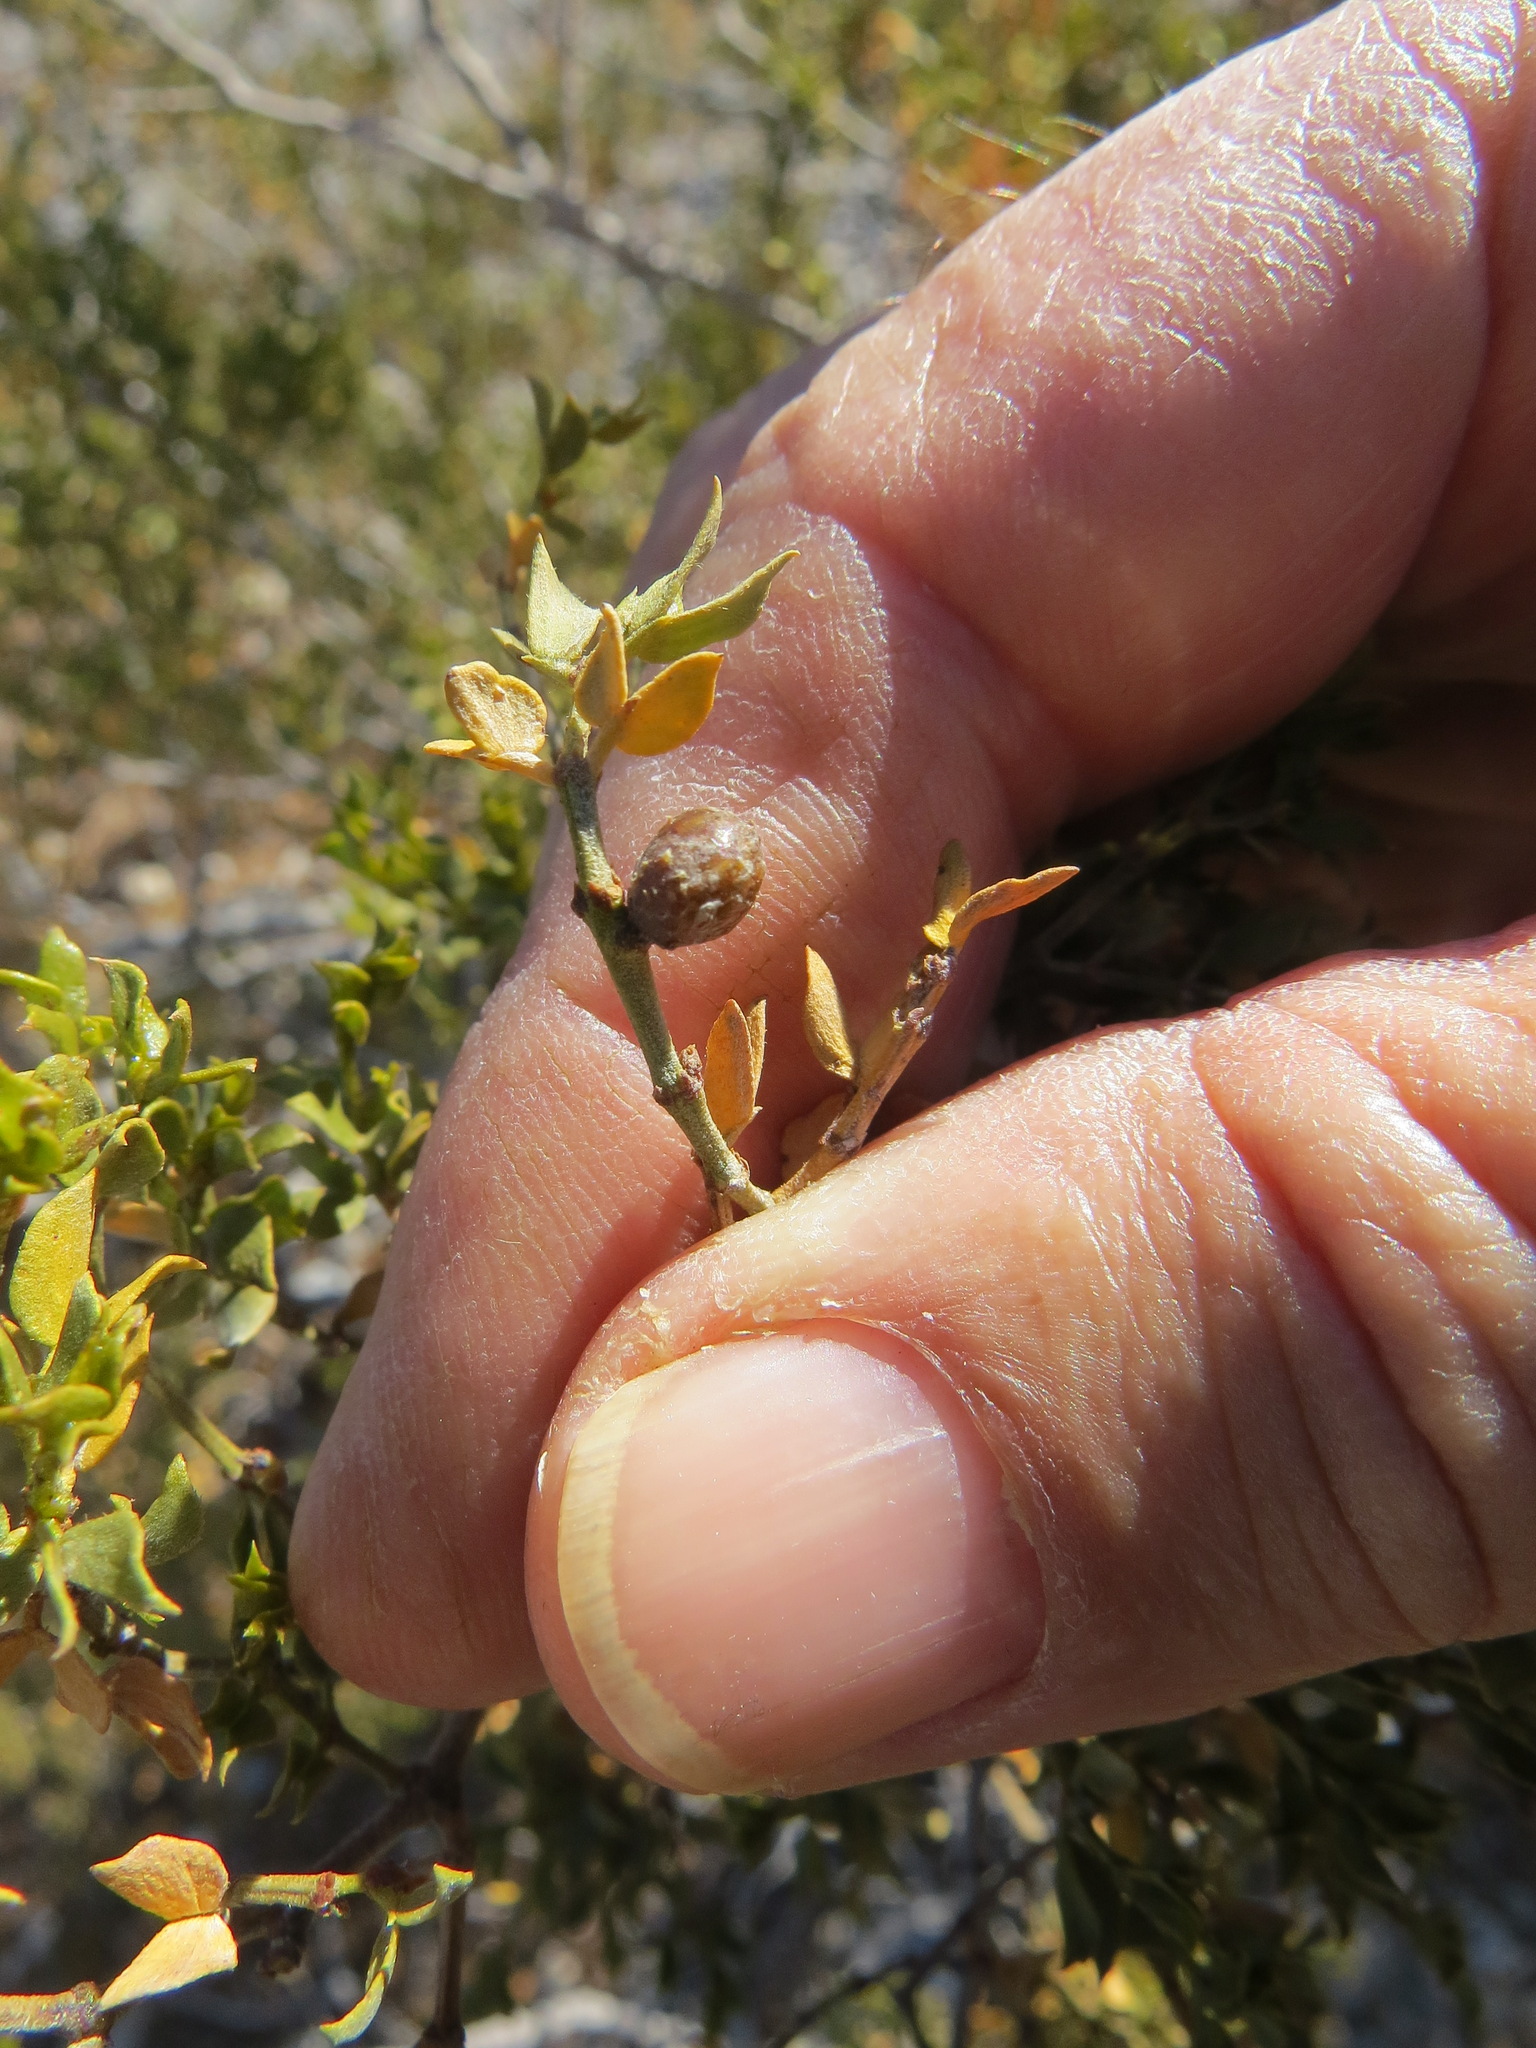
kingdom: Animalia
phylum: Arthropoda
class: Insecta
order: Diptera
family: Cecidomyiidae
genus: Asphondylia
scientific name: Asphondylia resinosa
